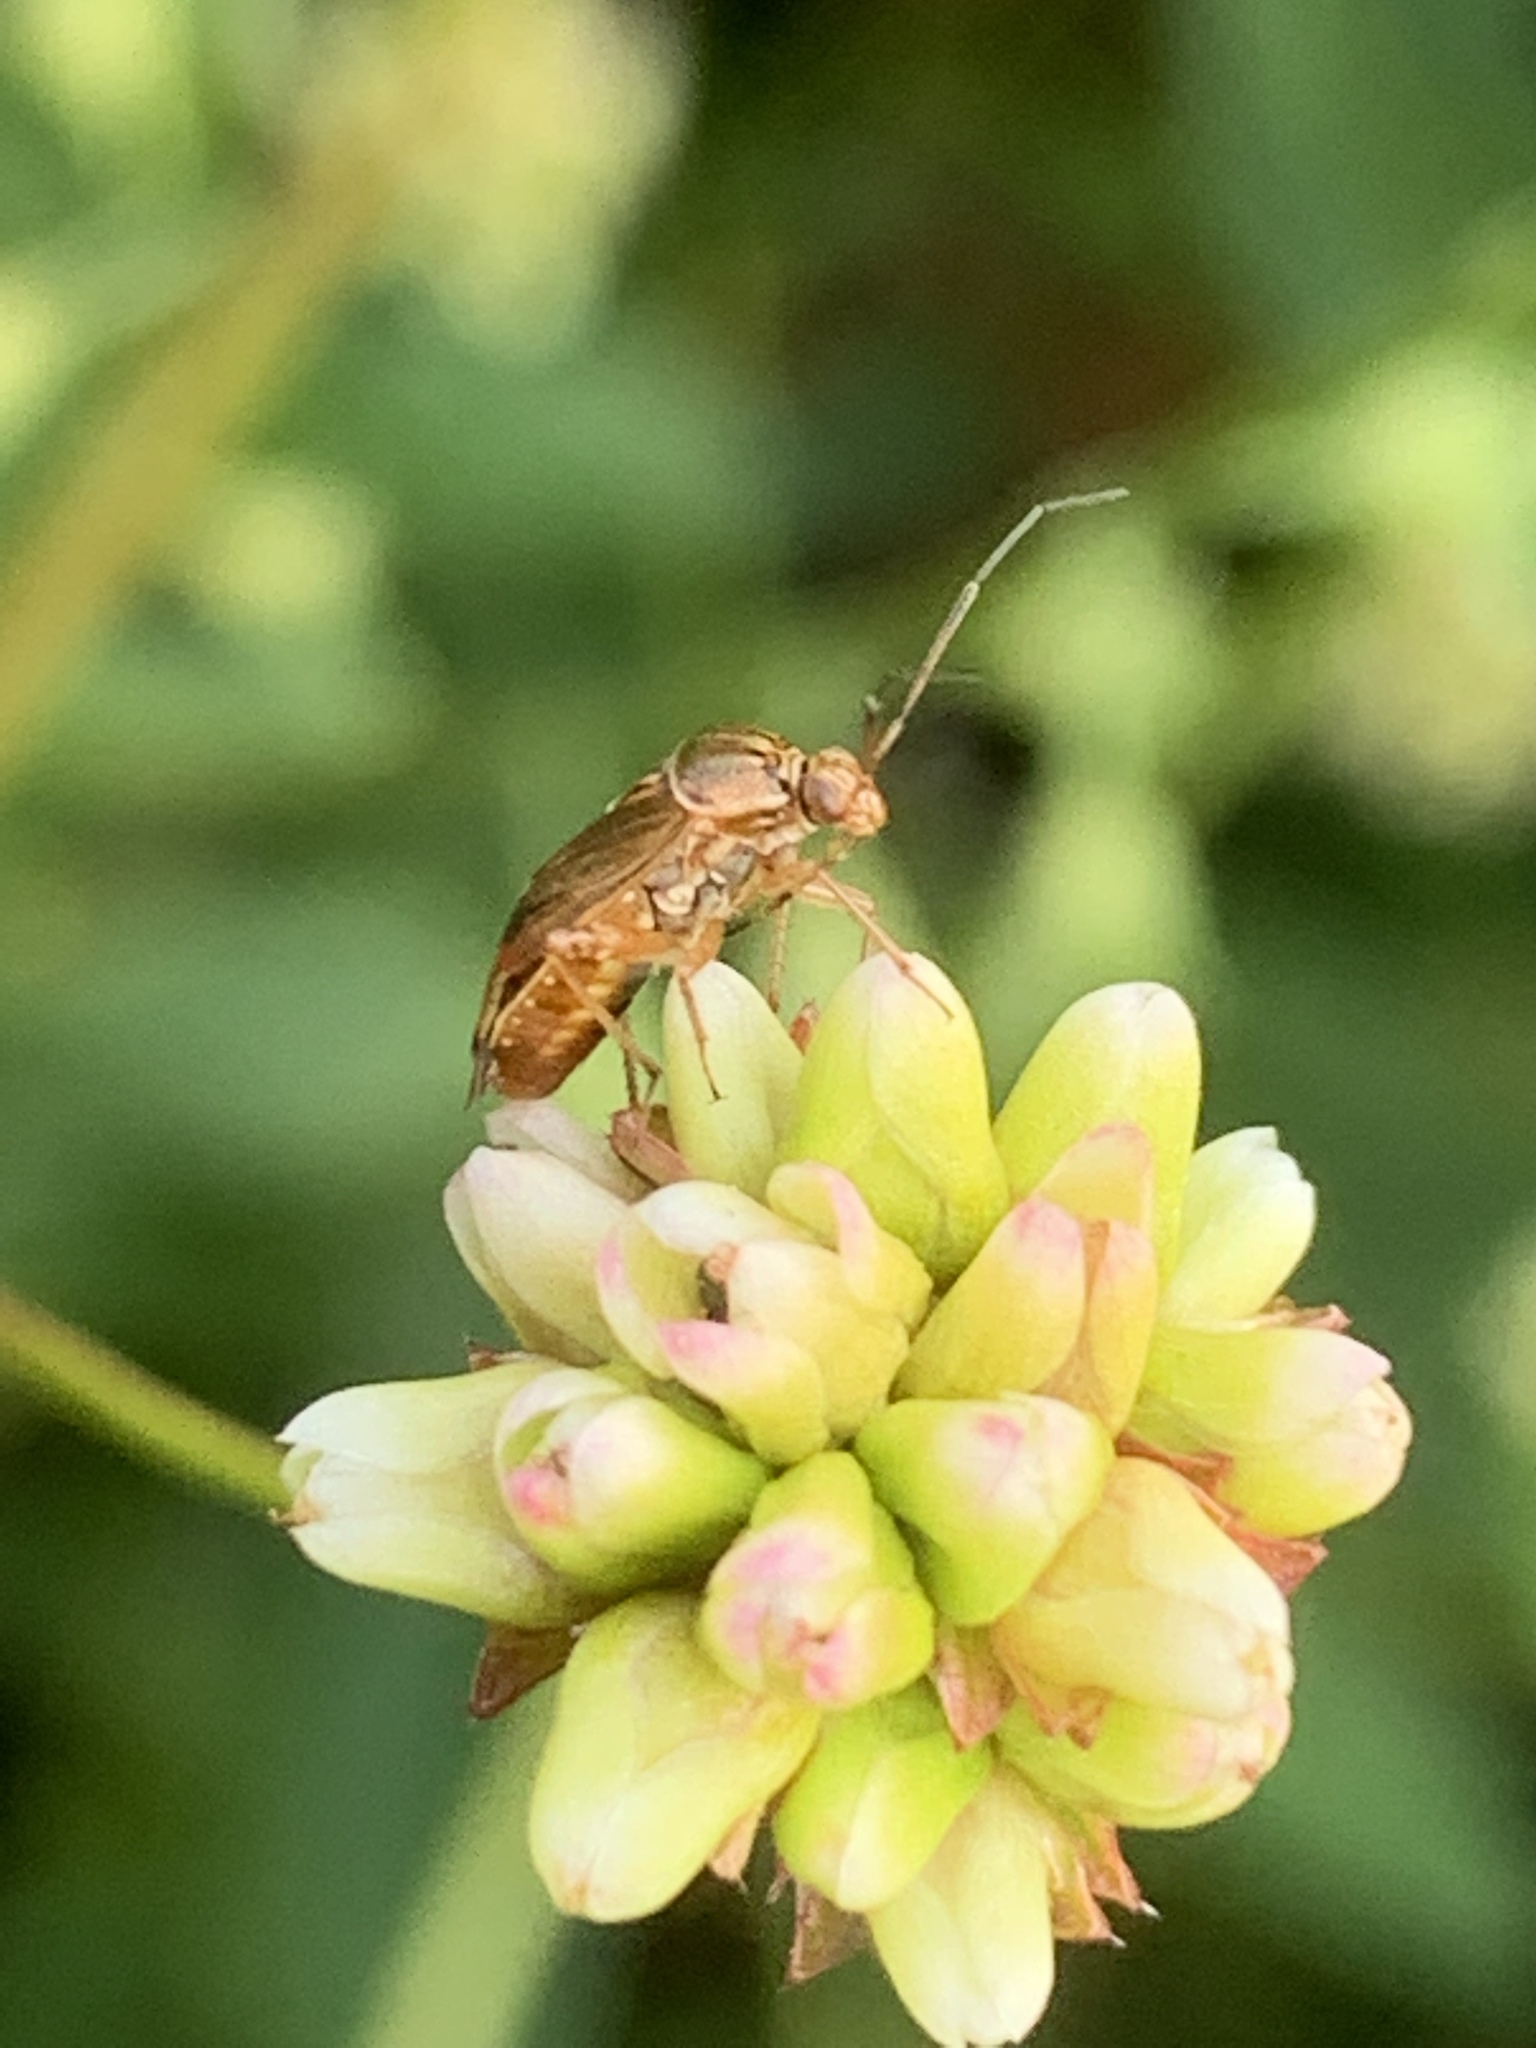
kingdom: Animalia
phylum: Arthropoda
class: Insecta
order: Hemiptera
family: Miridae
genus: Lygus
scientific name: Lygus lineolaris
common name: North american tarnished plant bug
